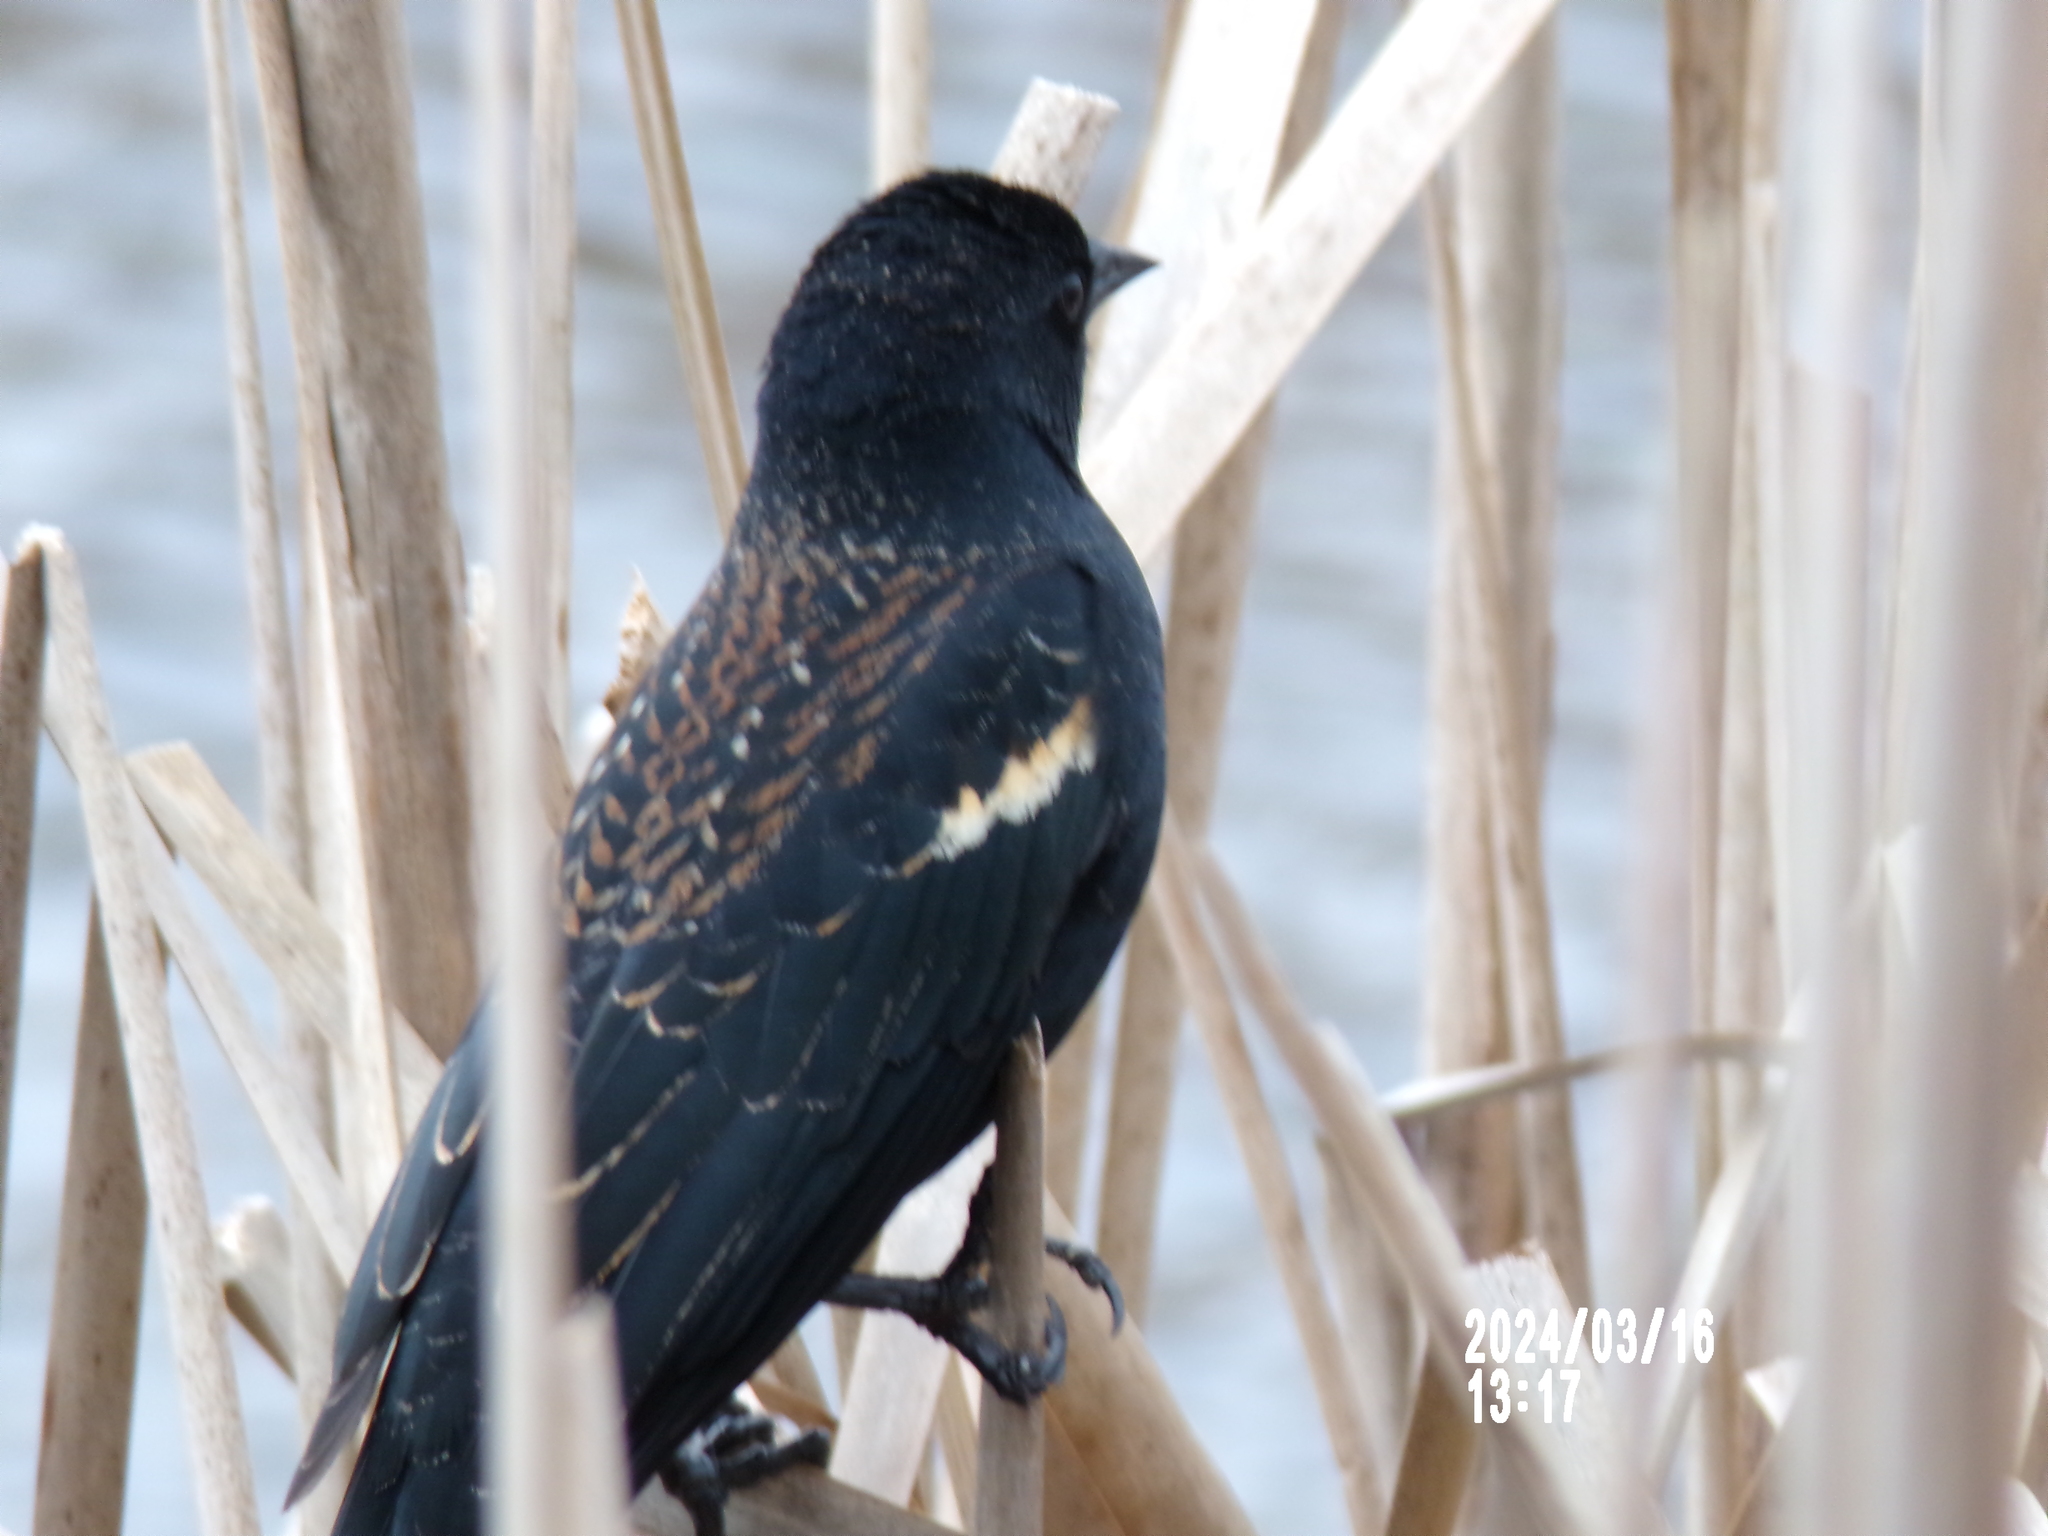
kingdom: Animalia
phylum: Chordata
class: Aves
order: Passeriformes
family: Icteridae
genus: Agelaius
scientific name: Agelaius phoeniceus
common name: Red-winged blackbird
